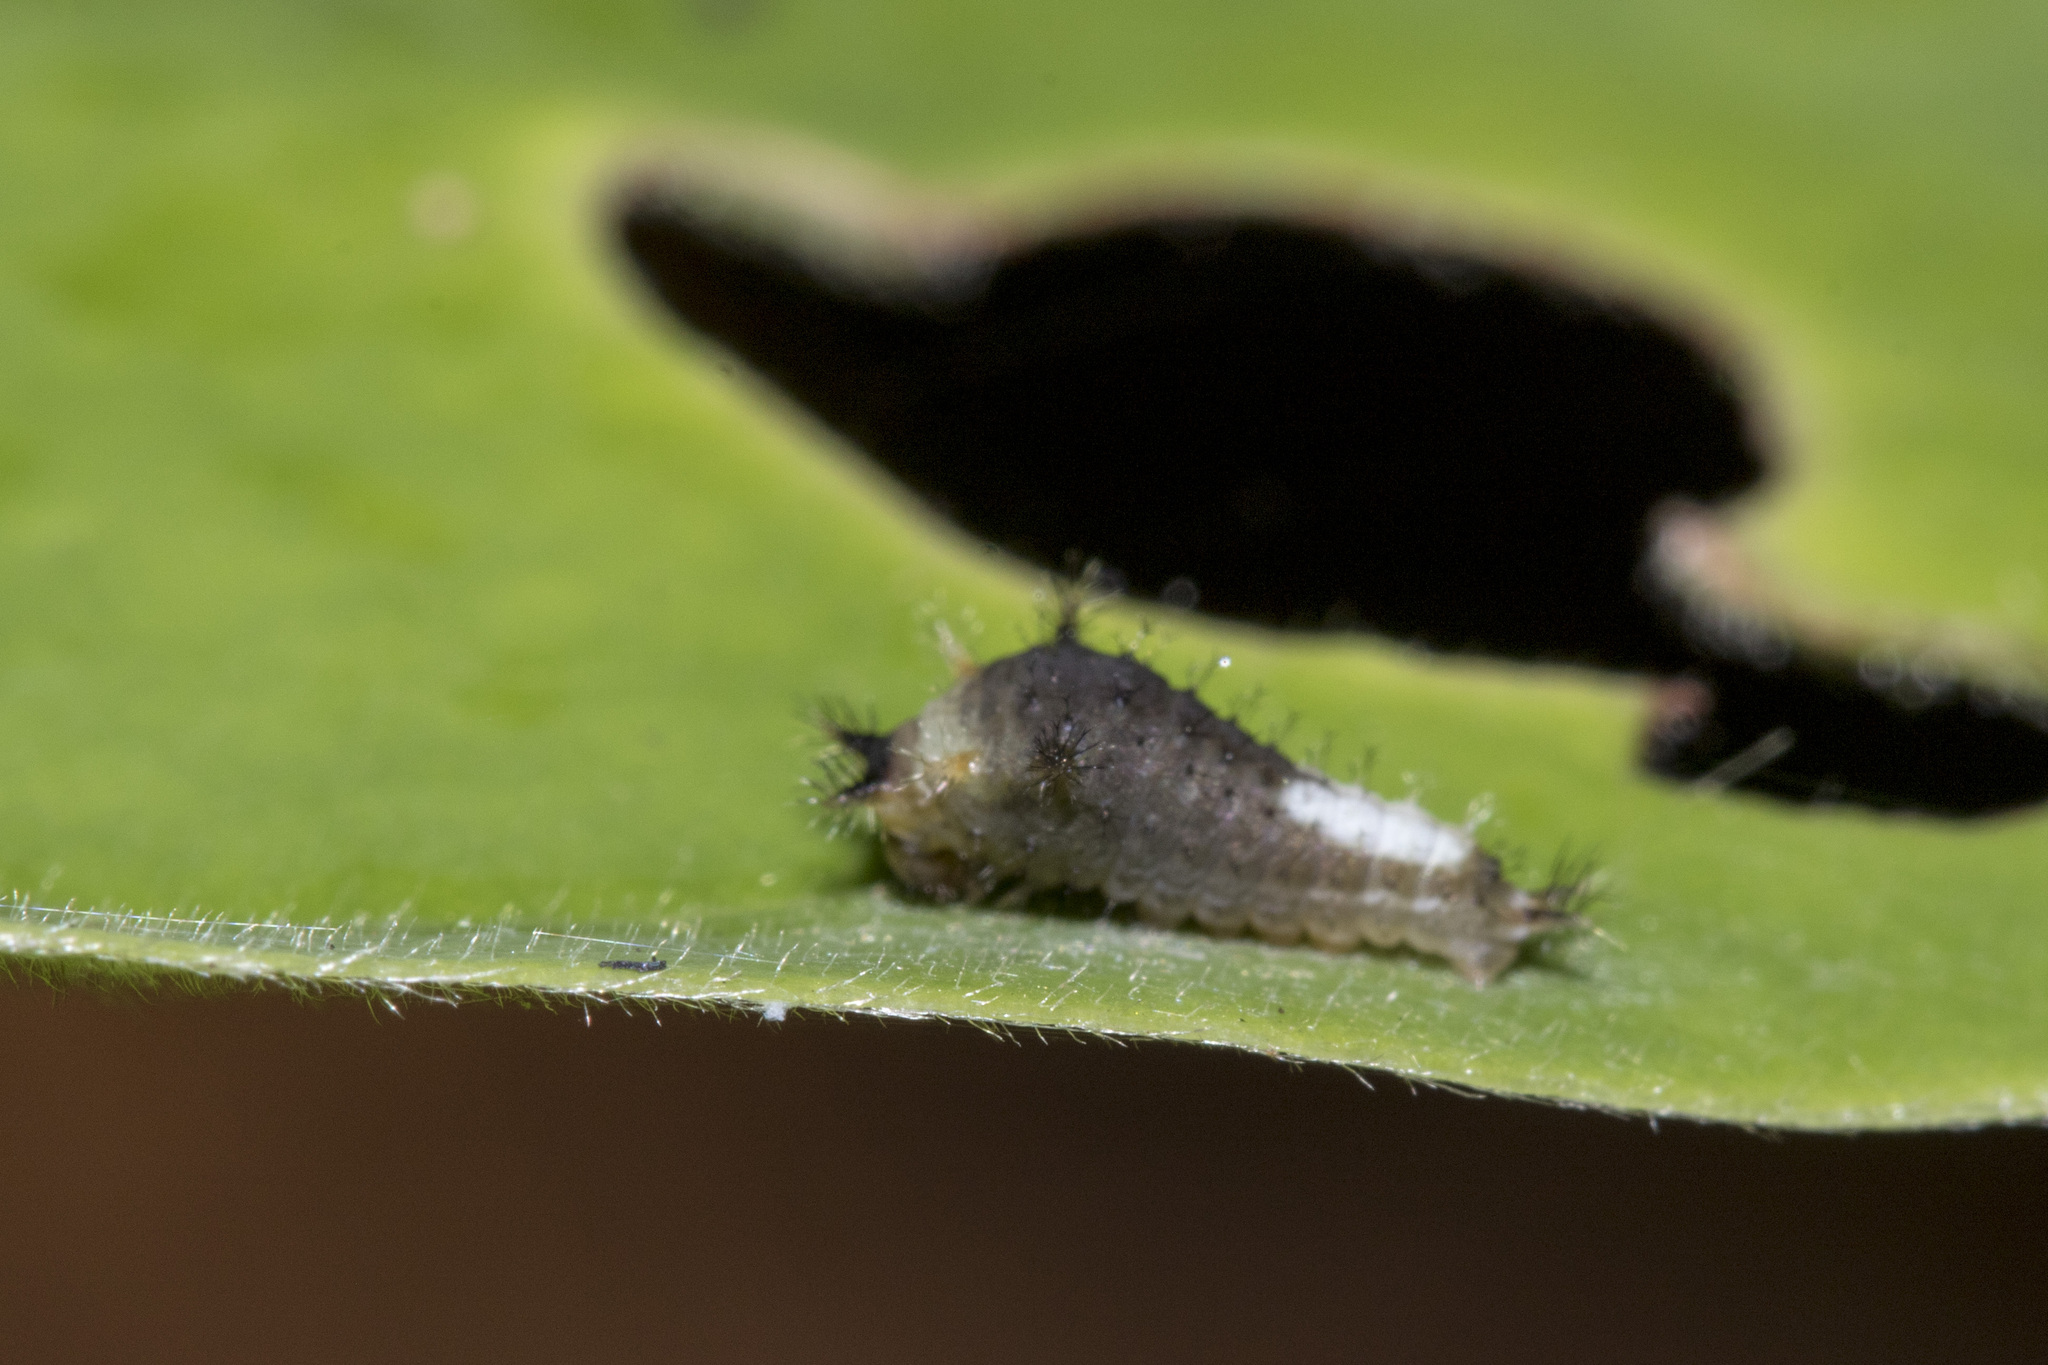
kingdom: Animalia
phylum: Arthropoda
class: Insecta
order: Lepidoptera
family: Papilionidae
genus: Graphium
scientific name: Graphium agamemnon
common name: Tailed jay
